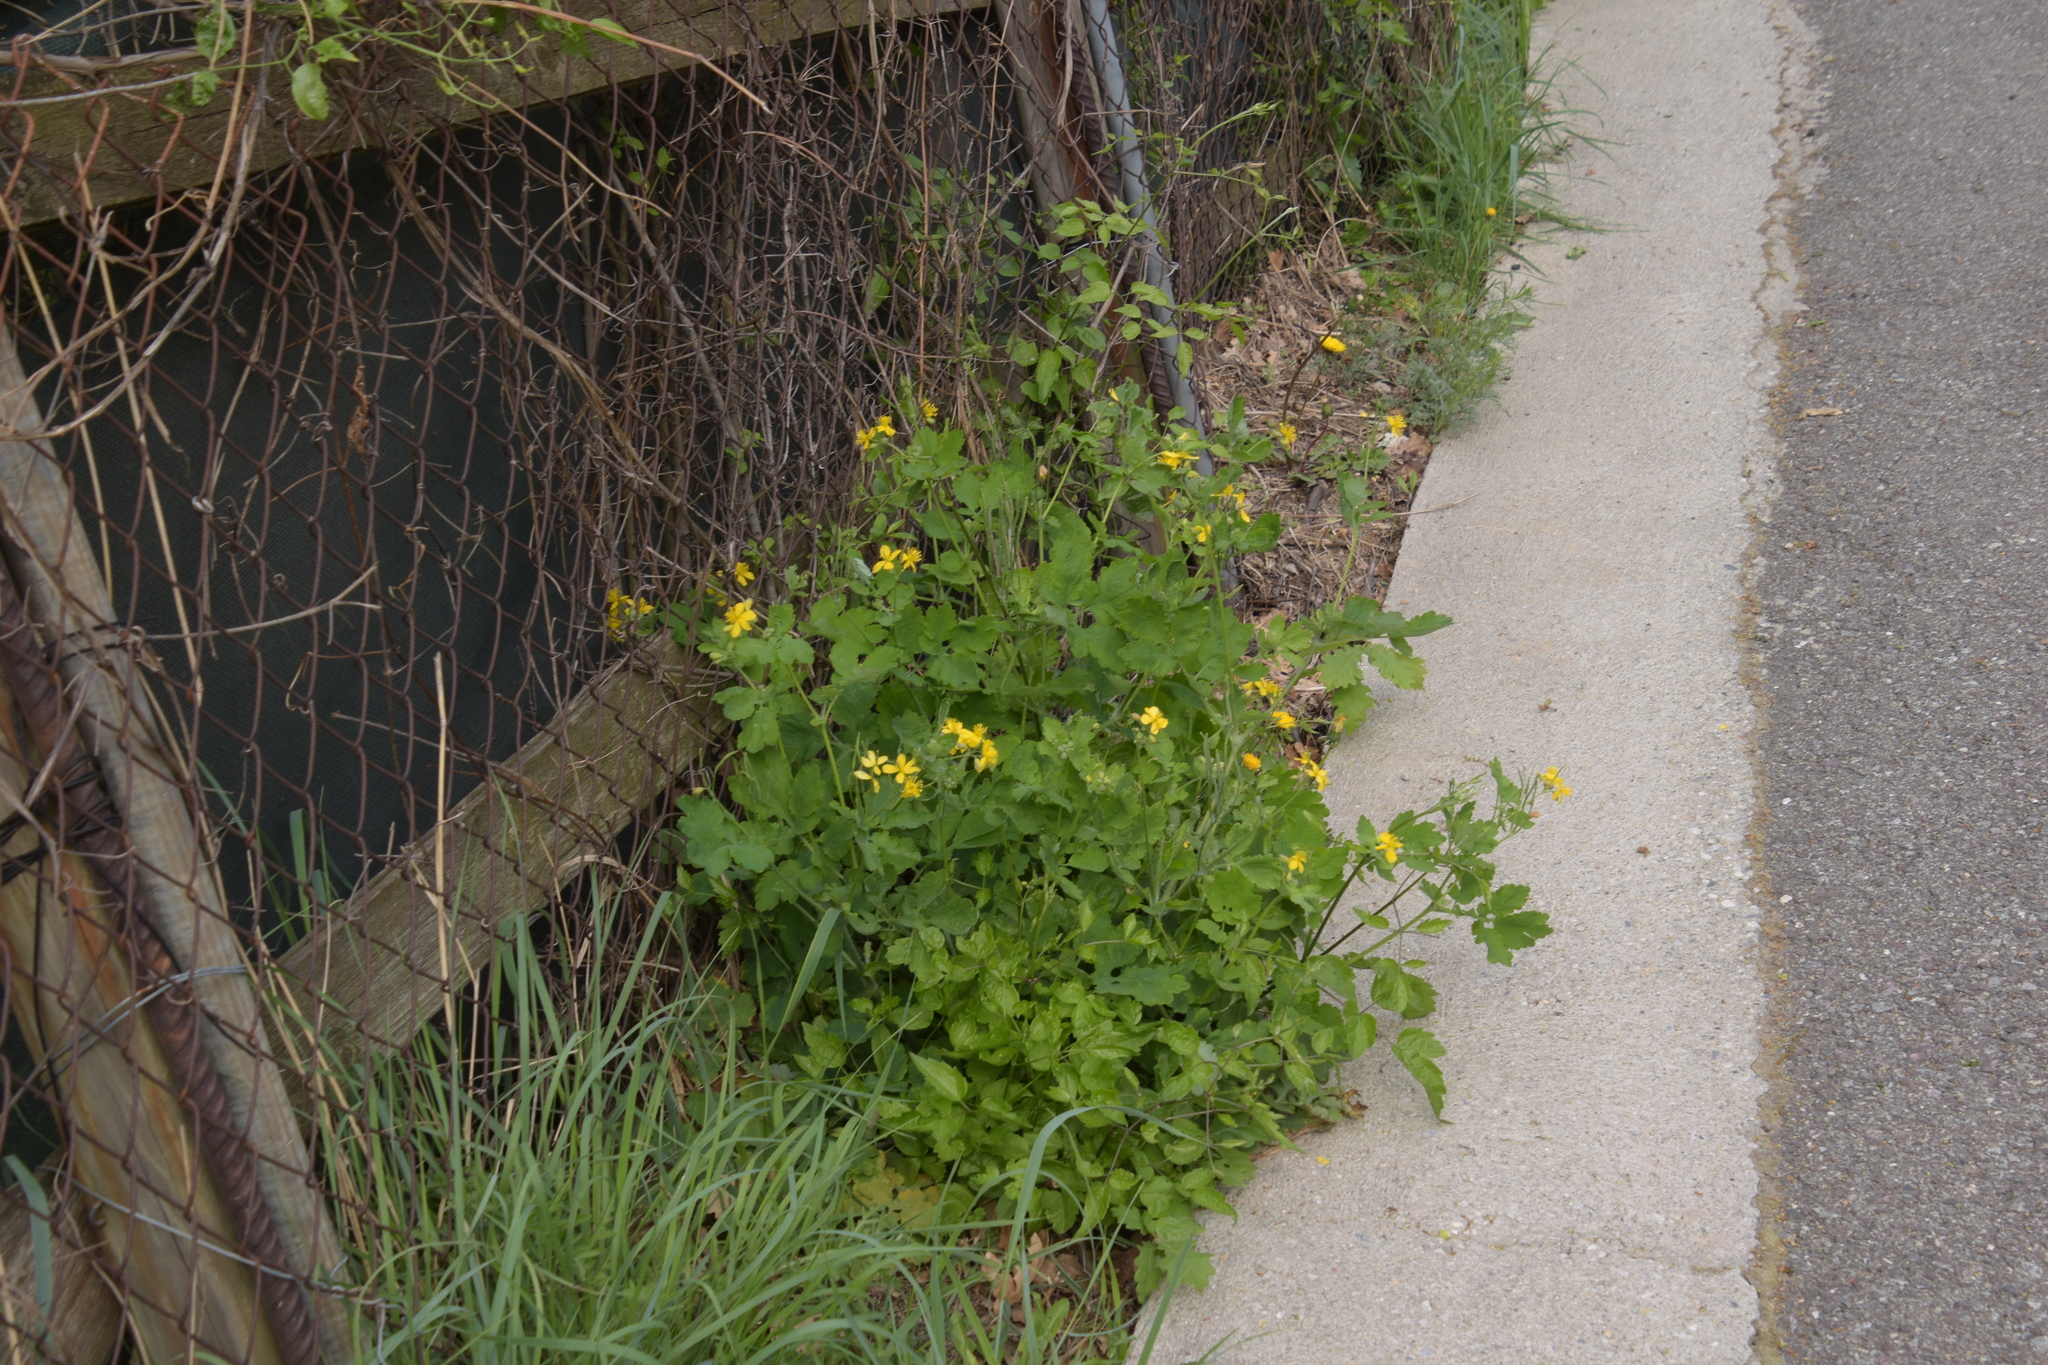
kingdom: Plantae
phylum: Tracheophyta
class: Magnoliopsida
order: Ranunculales
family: Papaveraceae
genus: Chelidonium
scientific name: Chelidonium majus
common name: Greater celandine
